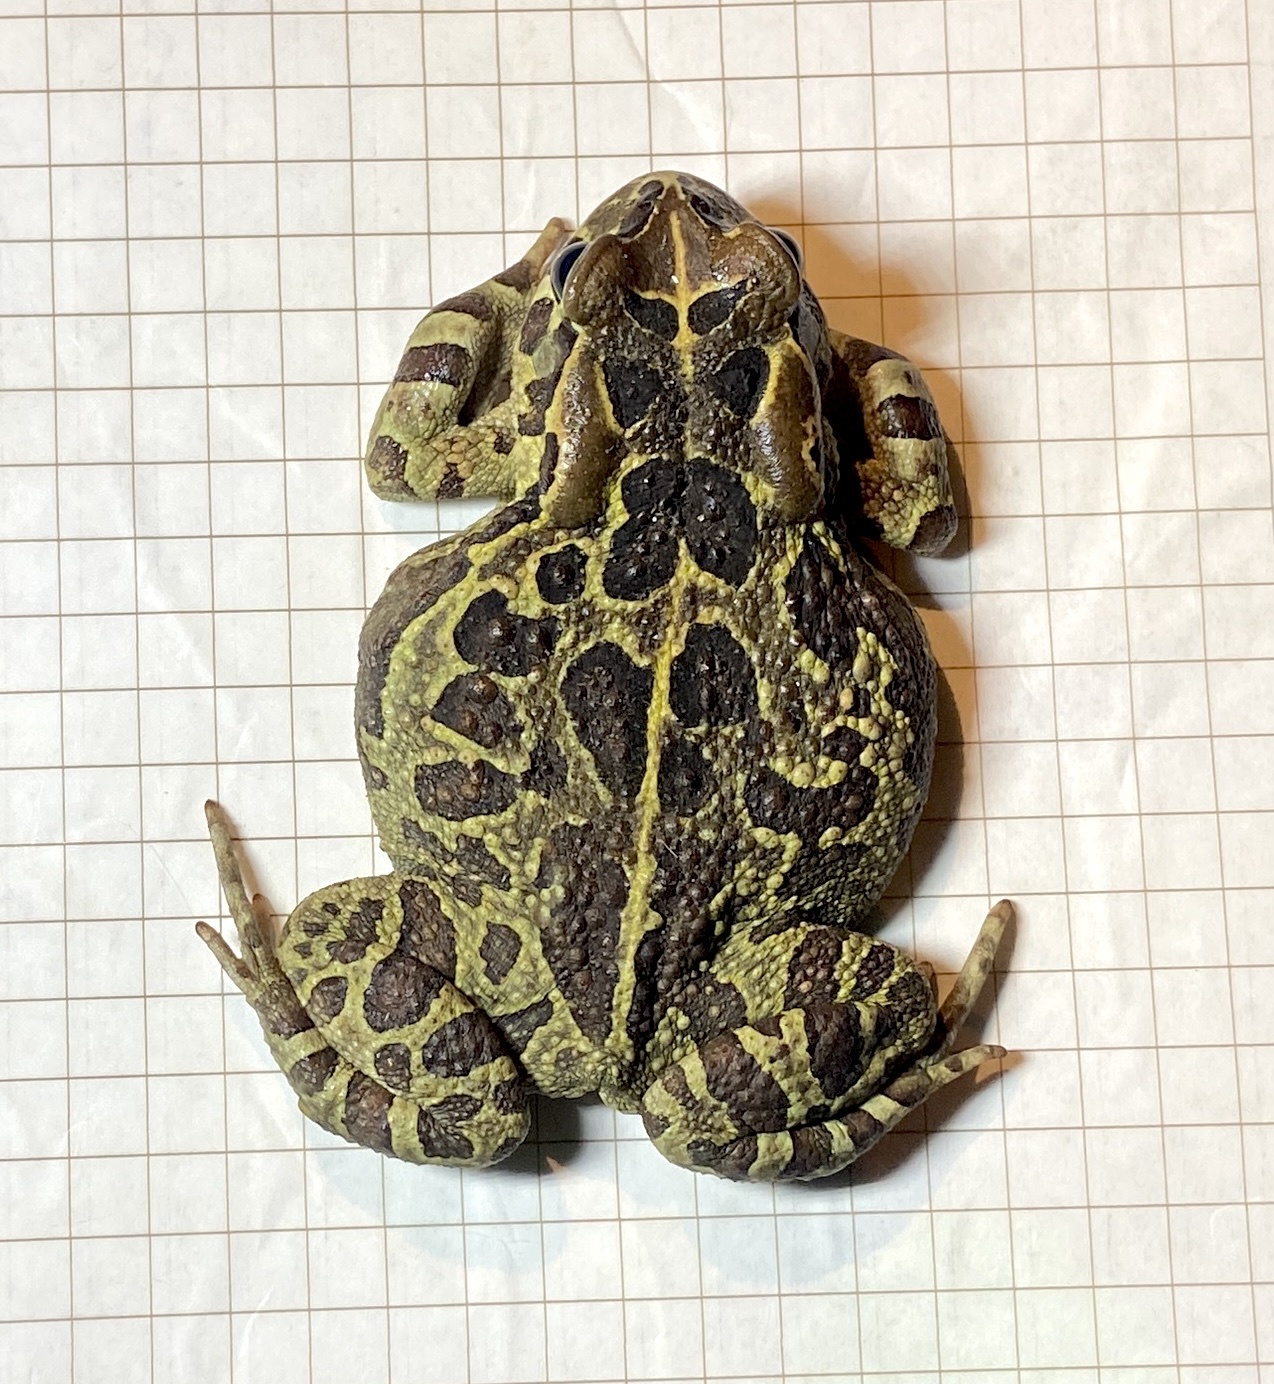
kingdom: Animalia
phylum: Chordata
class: Amphibia
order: Anura
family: Bufonidae
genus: Sclerophrys
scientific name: Sclerophrys pantherina
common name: Panther toad
